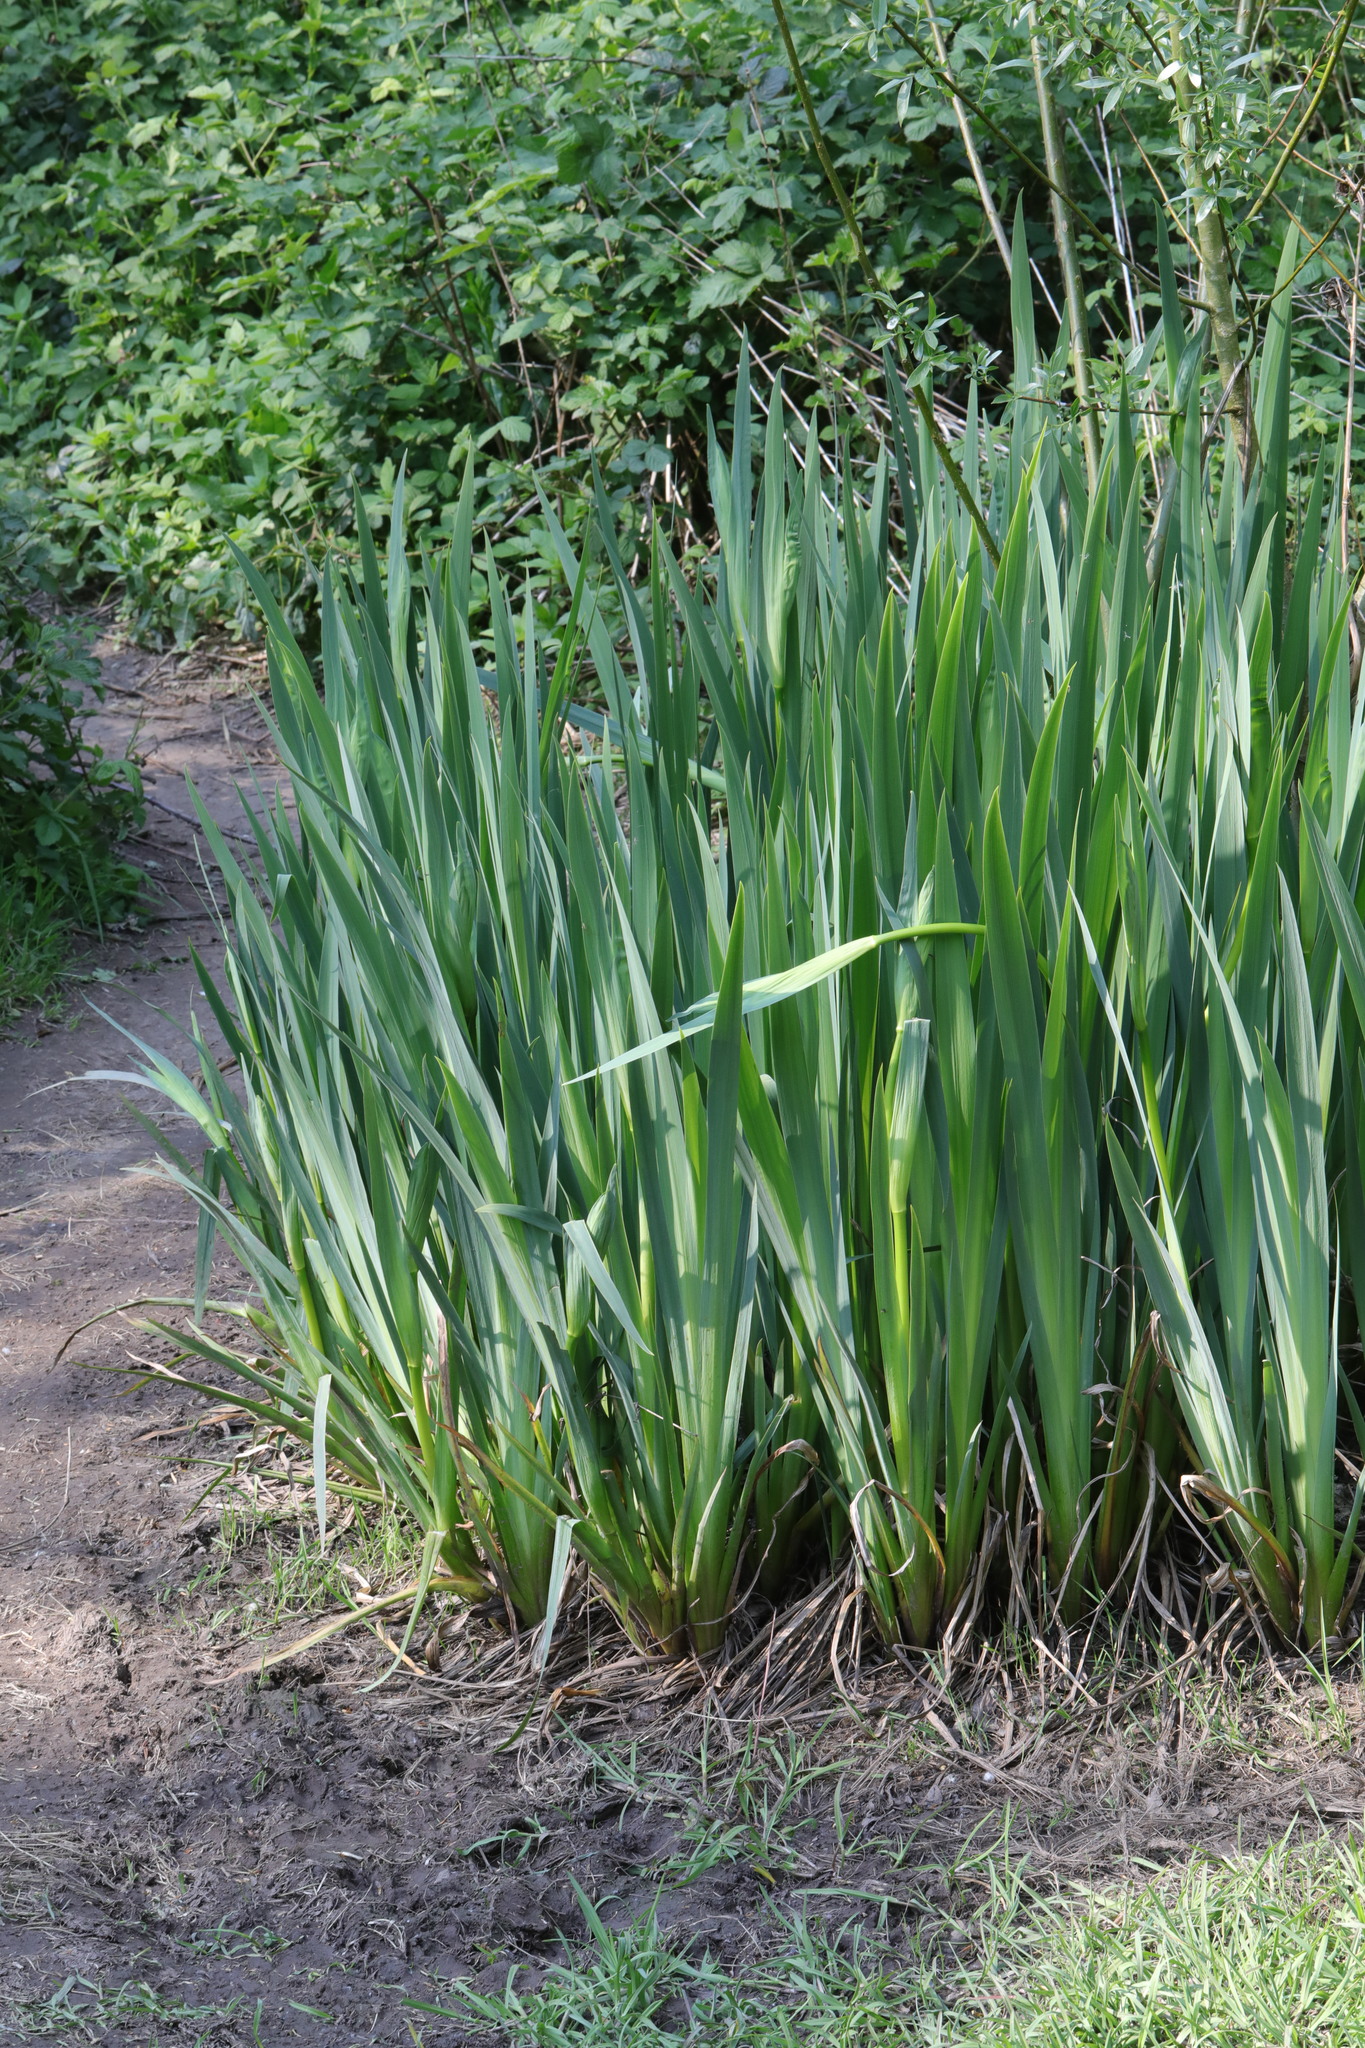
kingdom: Plantae
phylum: Tracheophyta
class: Liliopsida
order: Asparagales
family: Iridaceae
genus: Iris
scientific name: Iris pseudacorus
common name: Yellow flag
